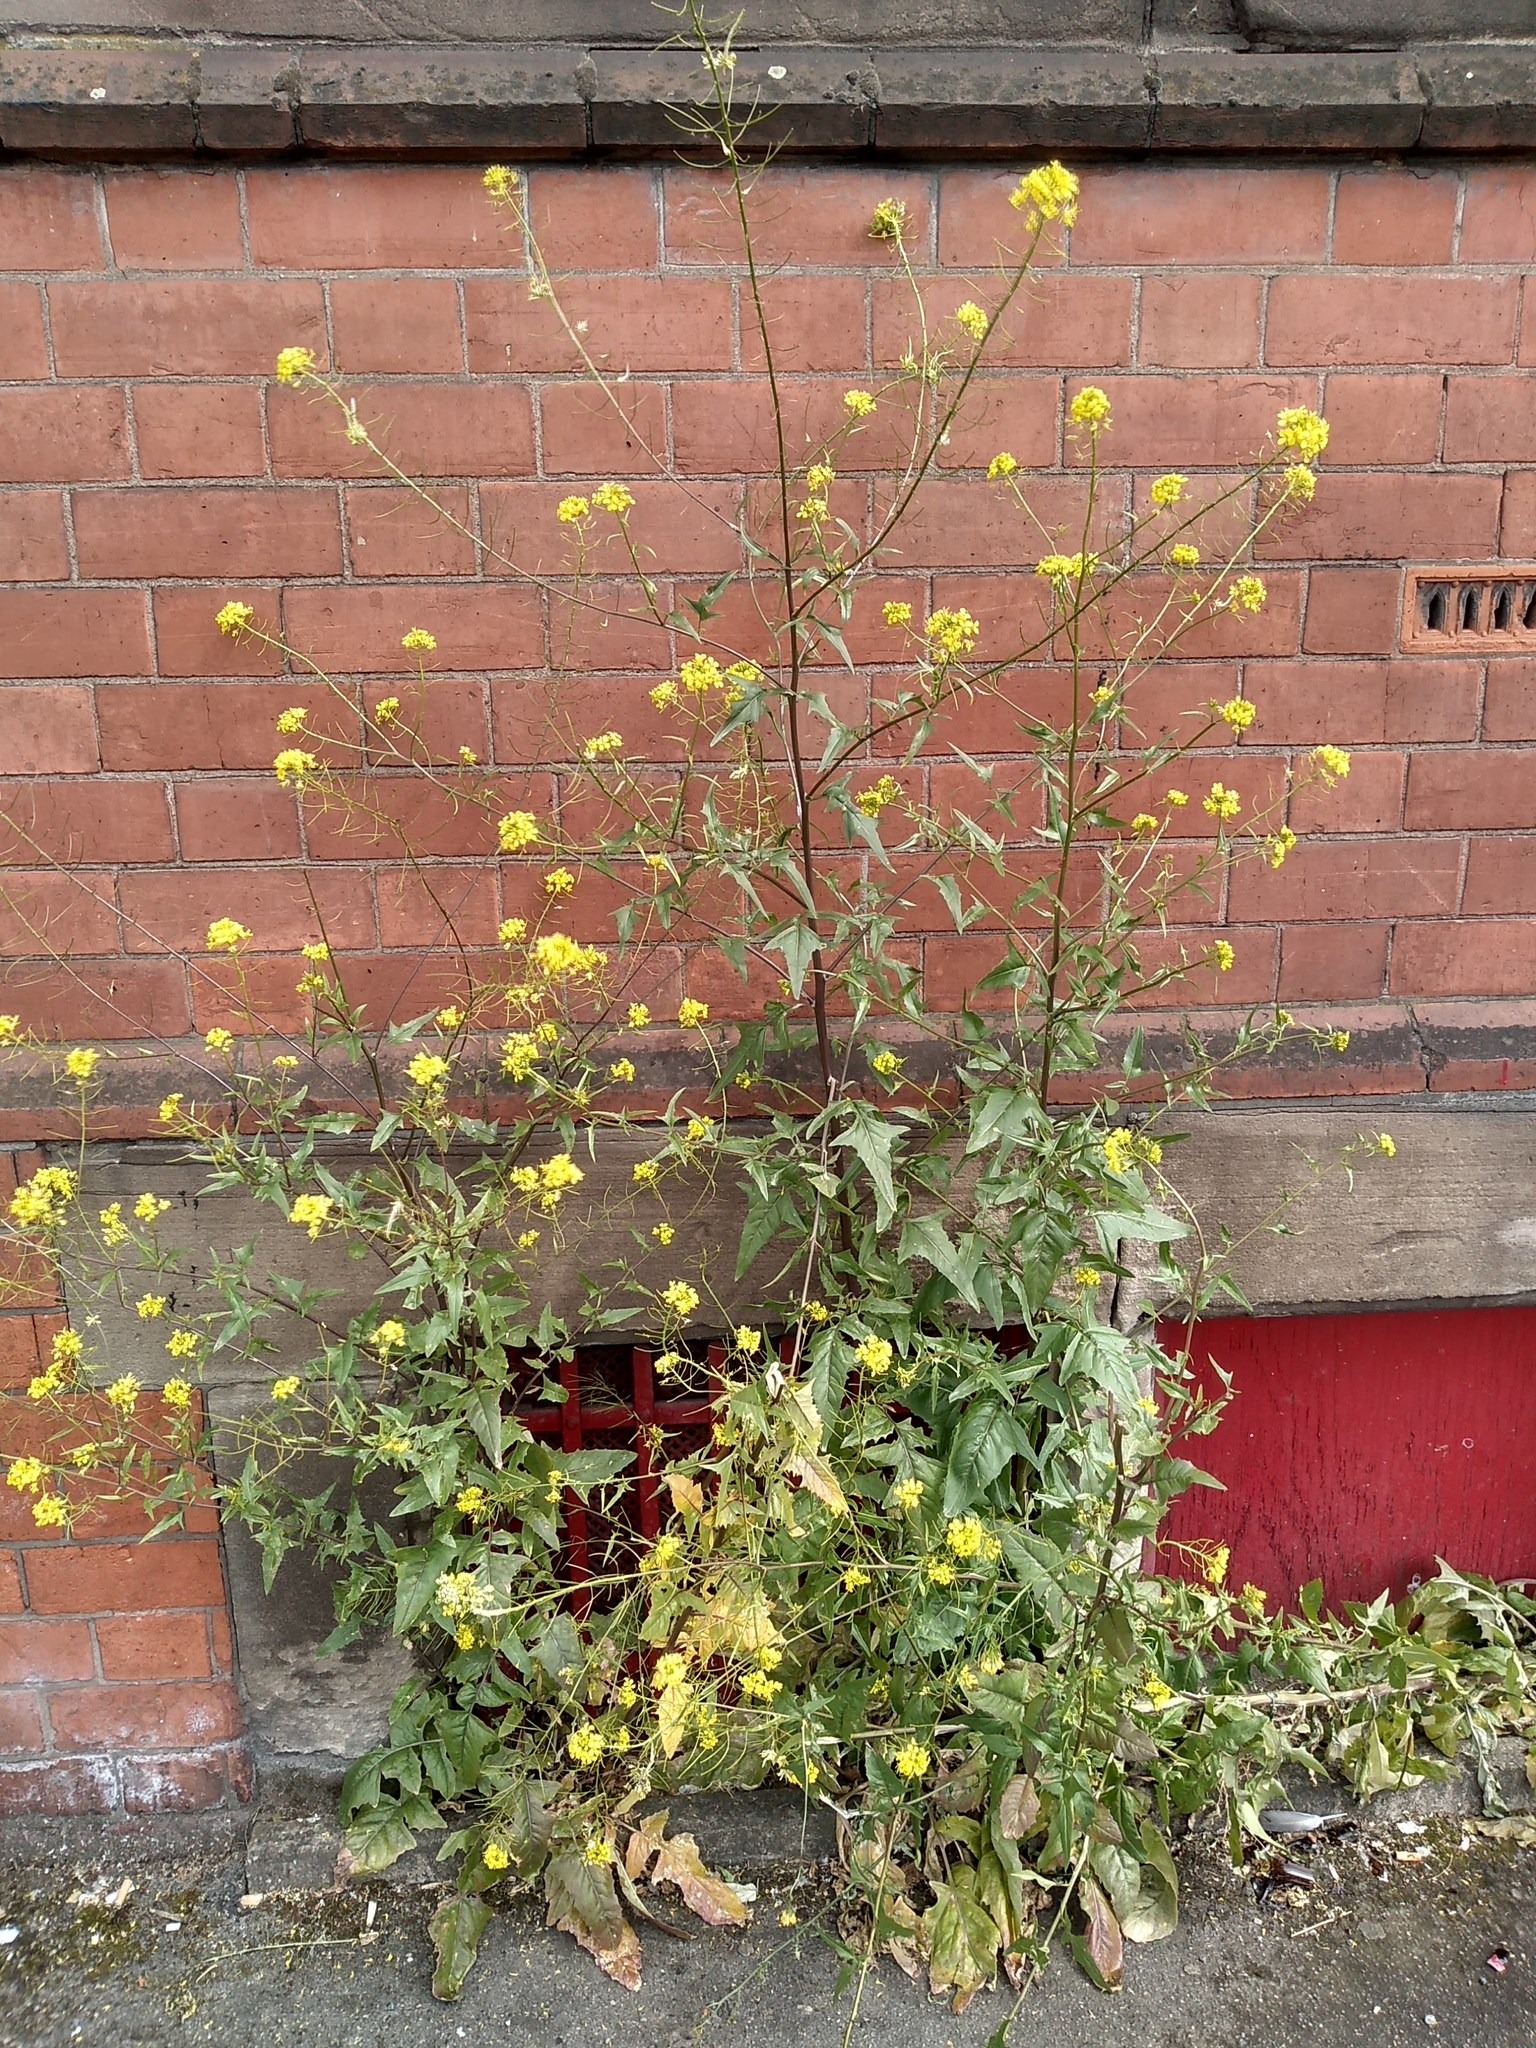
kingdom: Plantae
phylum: Tracheophyta
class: Magnoliopsida
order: Brassicales
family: Brassicaceae
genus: Sisymbrium
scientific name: Sisymbrium loeselii
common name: False london-rocket
